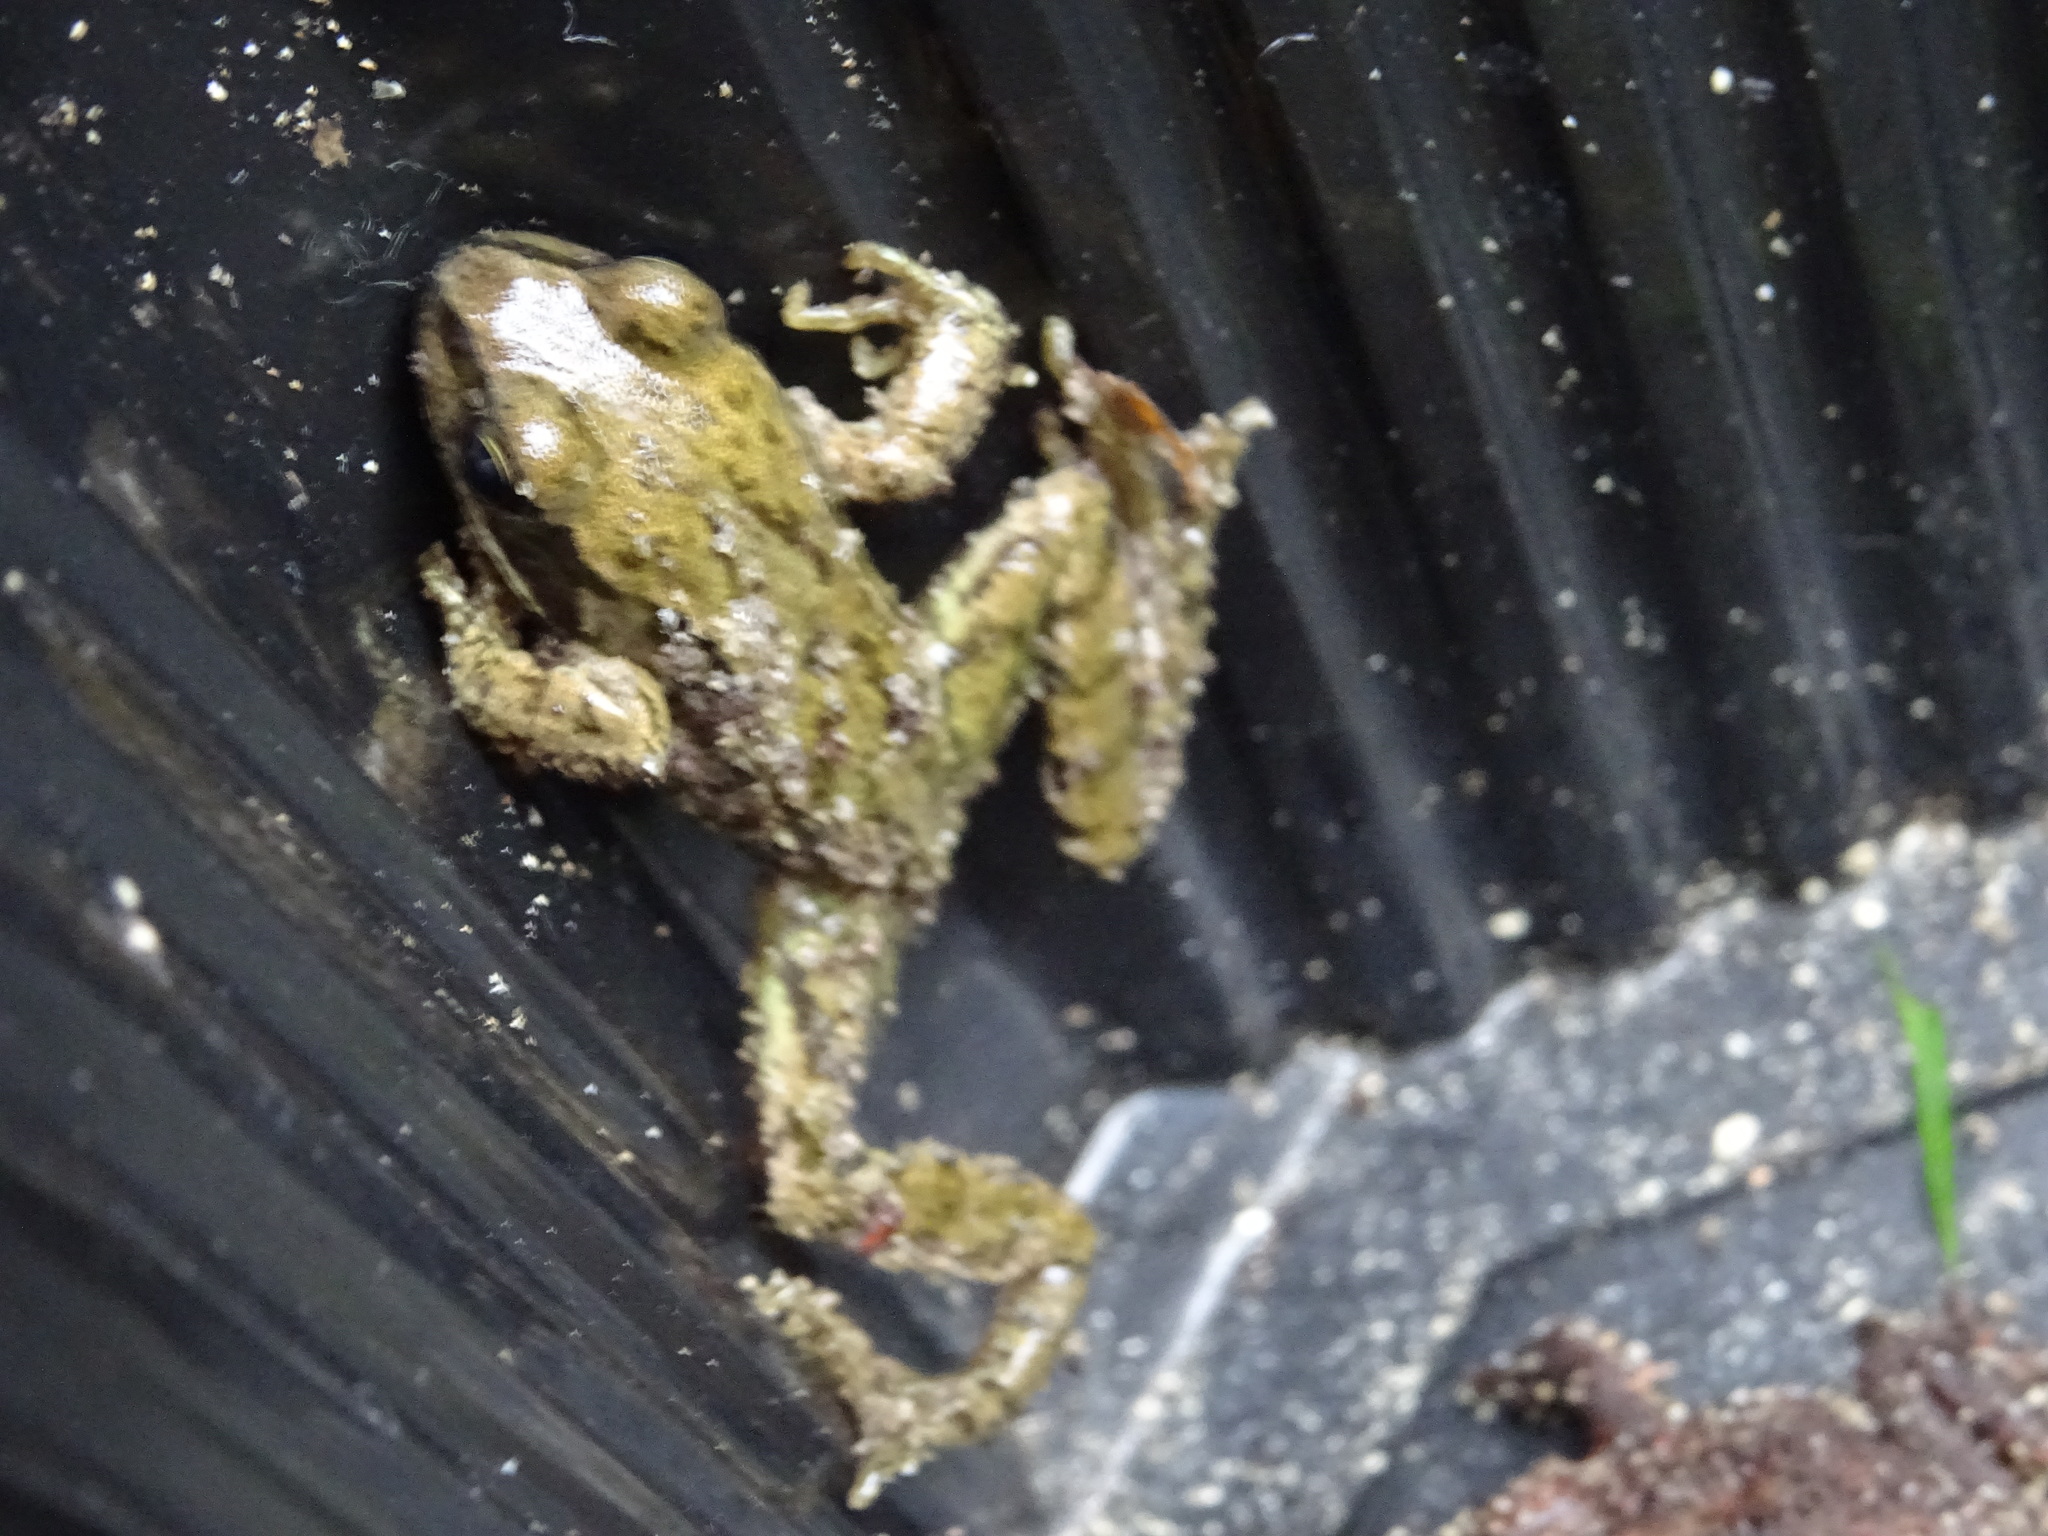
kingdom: Animalia
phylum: Chordata
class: Amphibia
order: Anura
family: Ranidae
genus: Rana
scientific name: Rana temporaria
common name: Common frog
